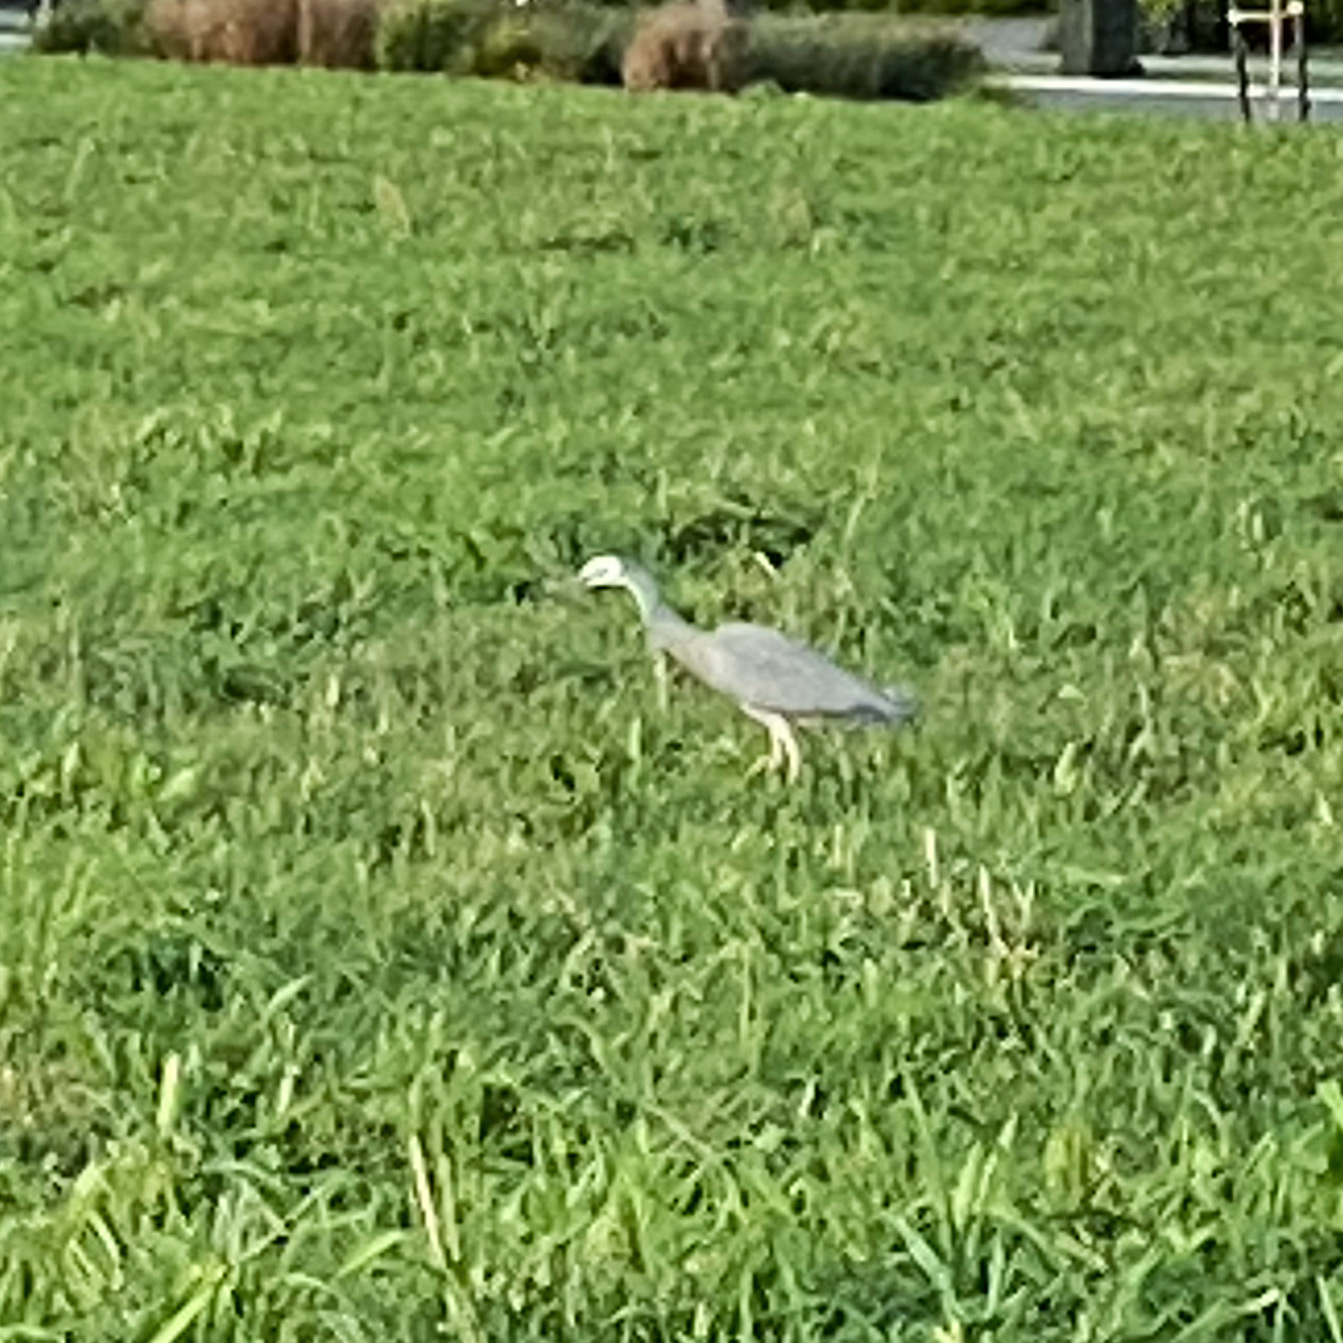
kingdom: Animalia
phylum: Chordata
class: Aves
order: Pelecaniformes
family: Ardeidae
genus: Egretta
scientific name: Egretta novaehollandiae
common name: White-faced heron
